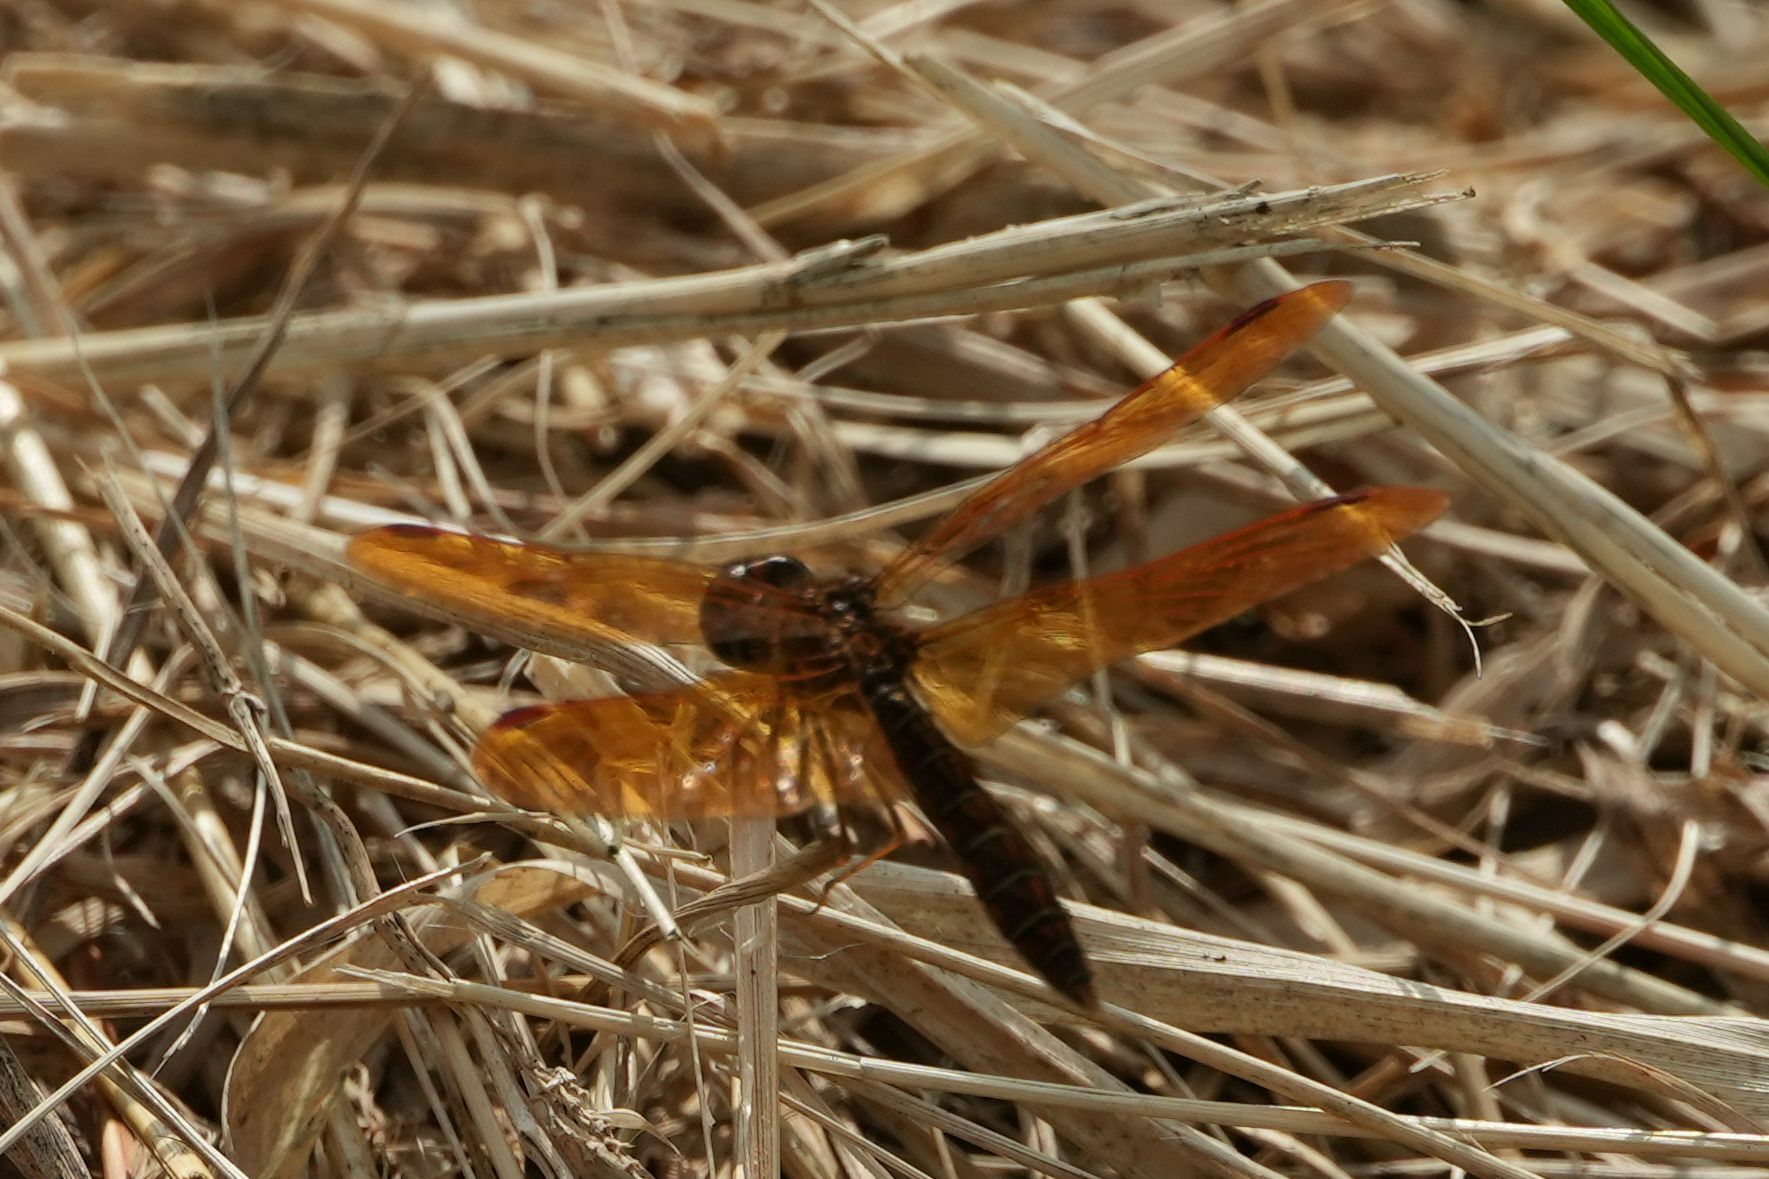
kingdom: Animalia
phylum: Arthropoda
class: Insecta
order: Odonata
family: Libellulidae
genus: Perithemis
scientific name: Perithemis tenera
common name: Eastern amberwing
